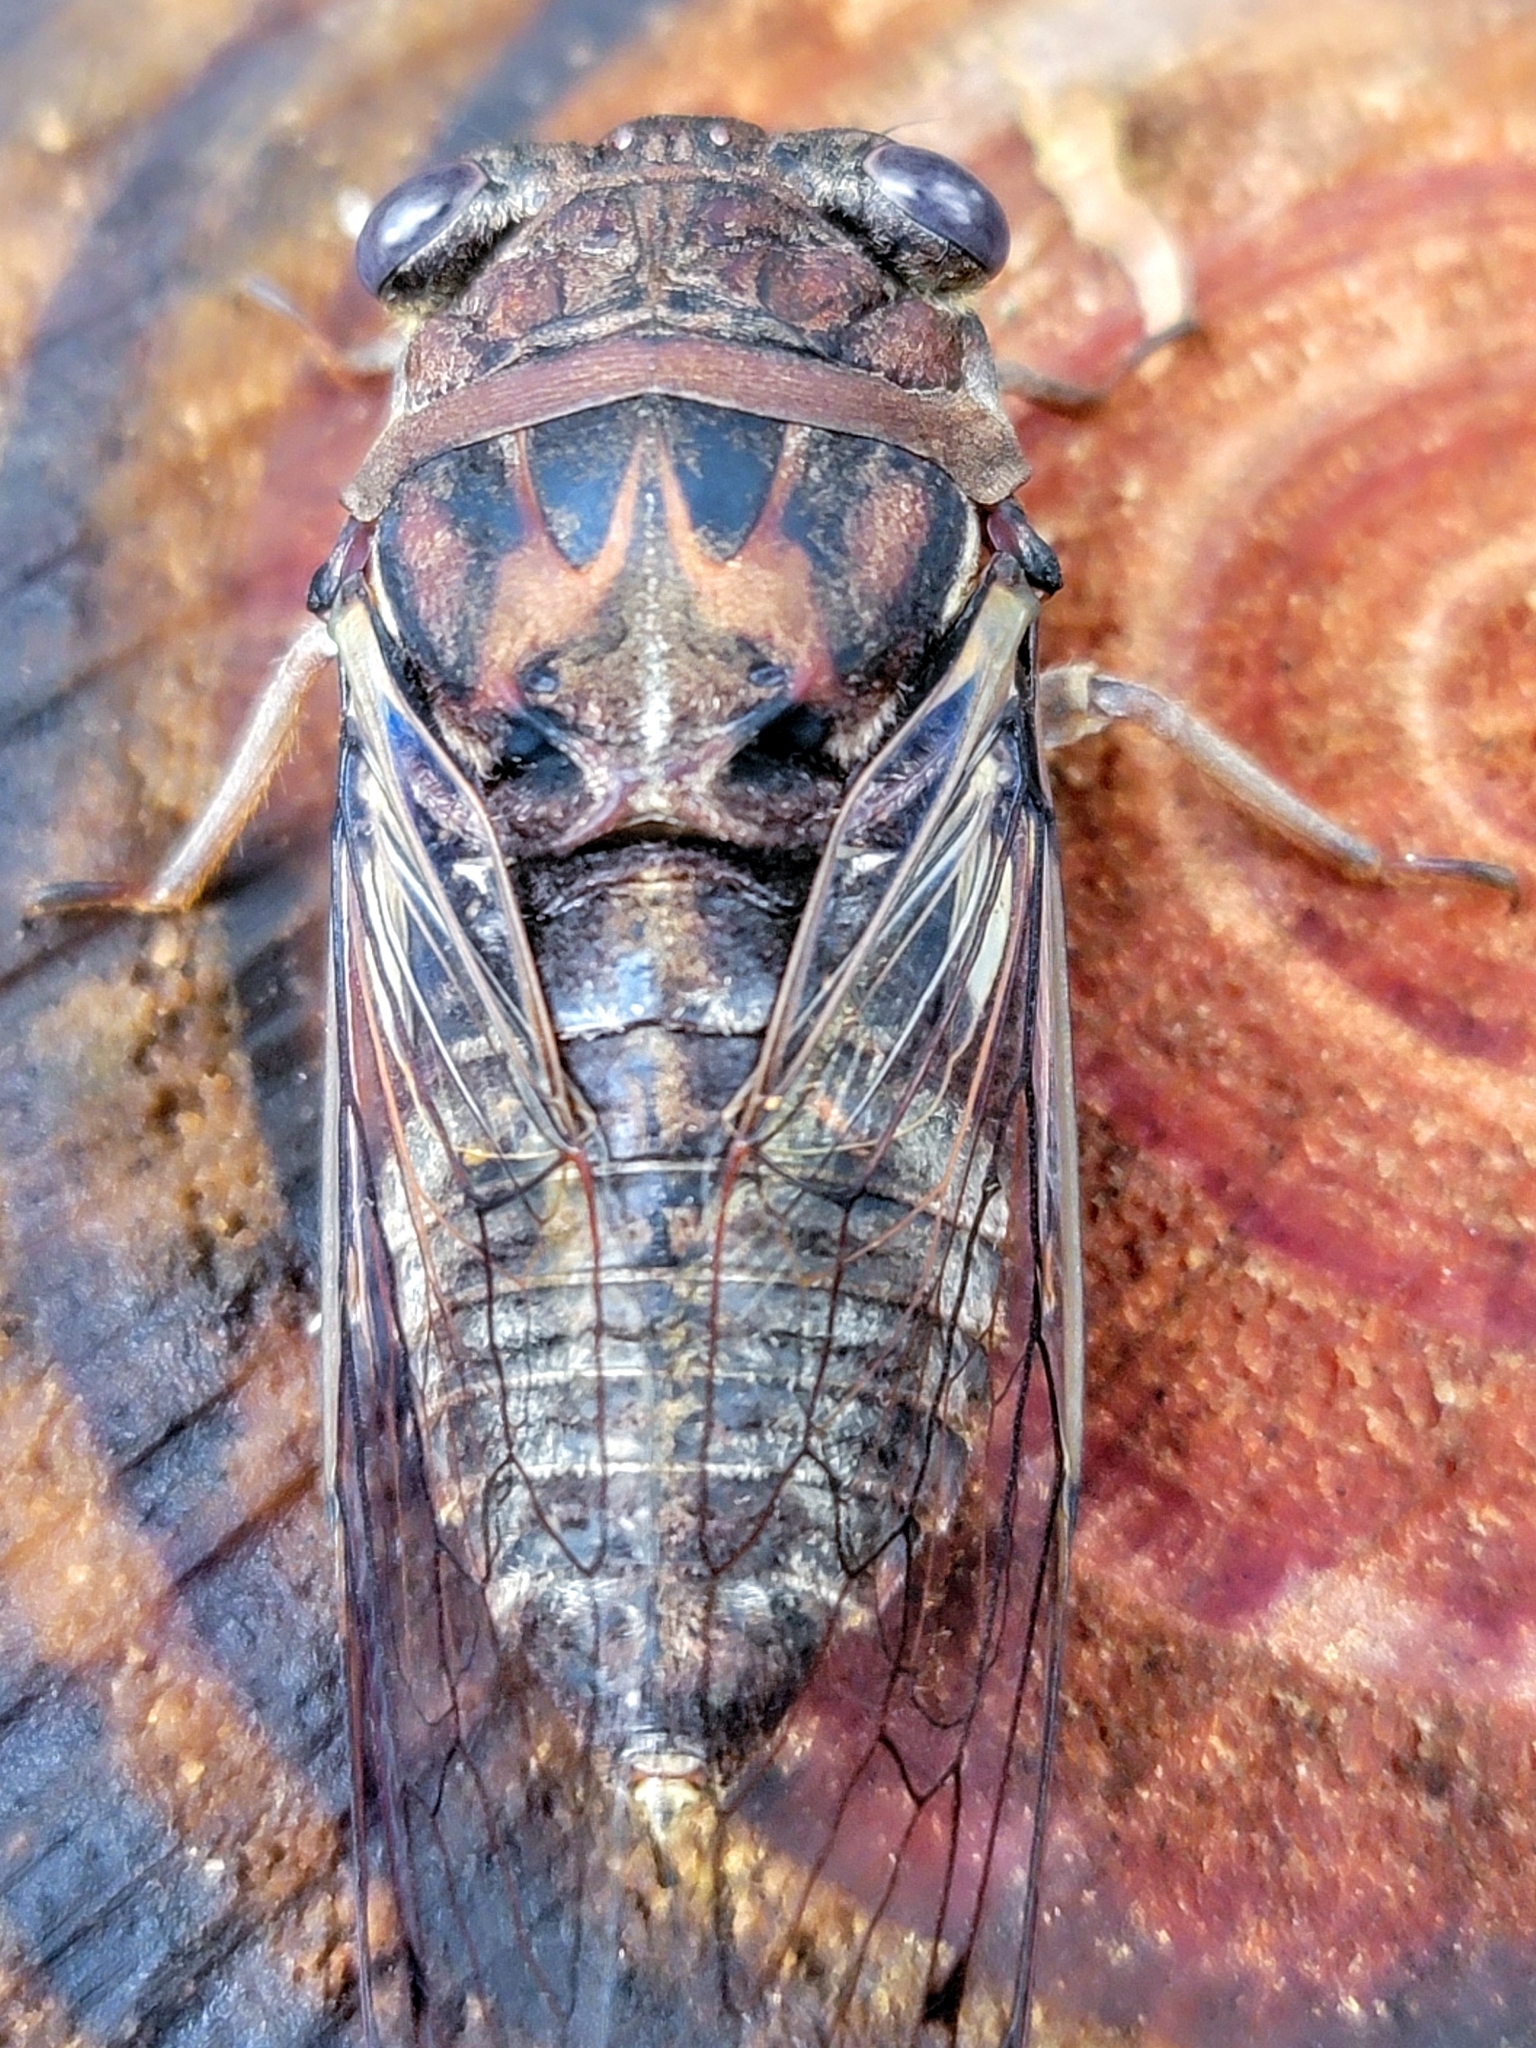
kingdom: Animalia
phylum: Arthropoda
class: Insecta
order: Hemiptera
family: Cicadidae
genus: Megatibicen
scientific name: Megatibicen figuratus
